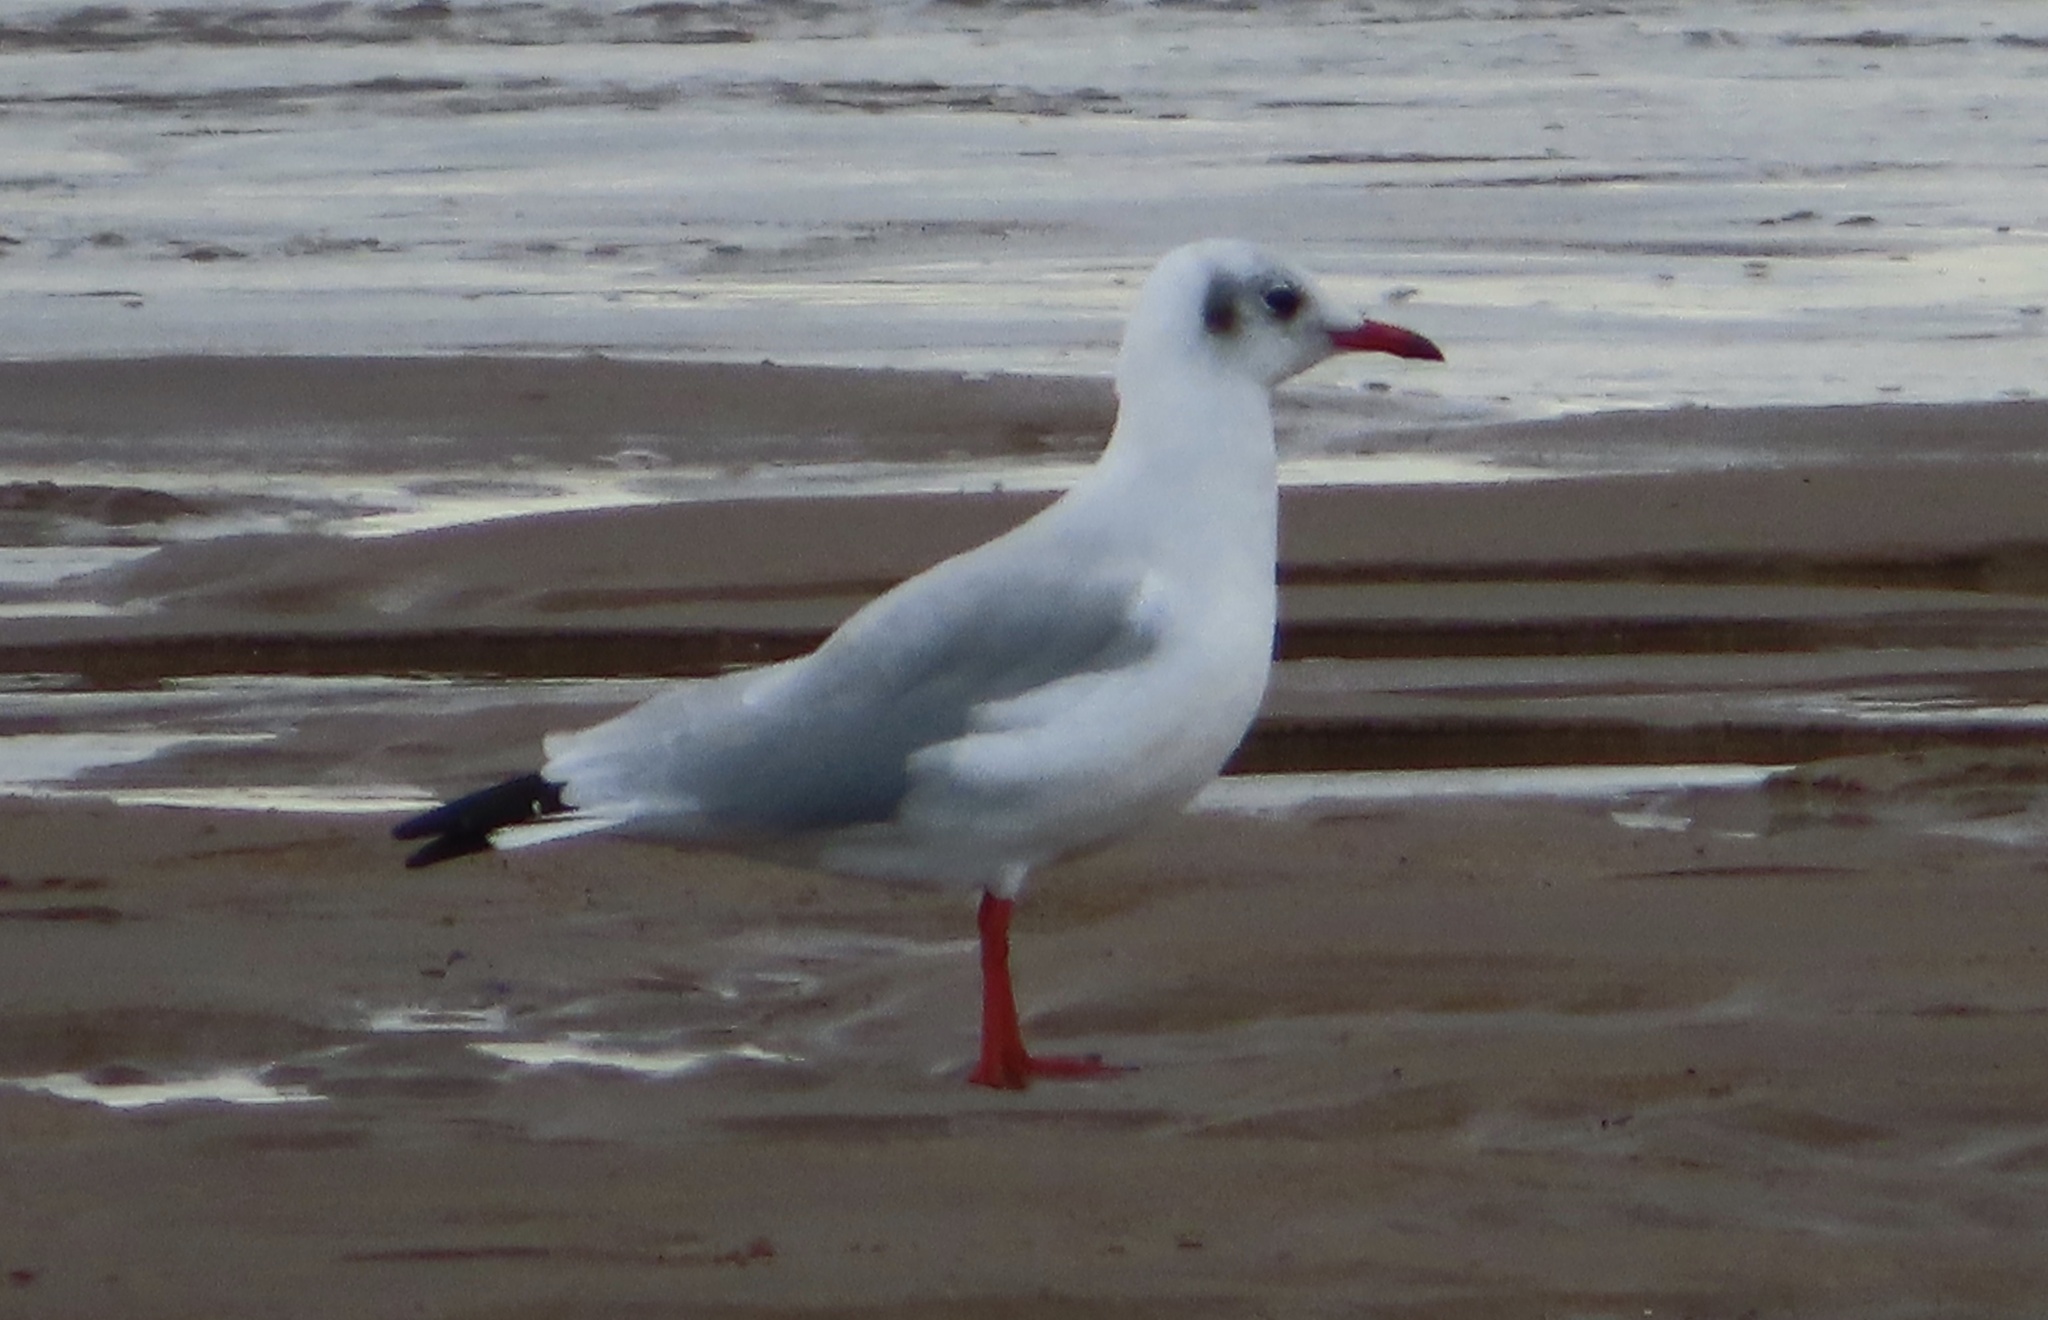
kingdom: Animalia
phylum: Chordata
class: Aves
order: Charadriiformes
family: Laridae
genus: Chroicocephalus
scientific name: Chroicocephalus ridibundus
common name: Black-headed gull
